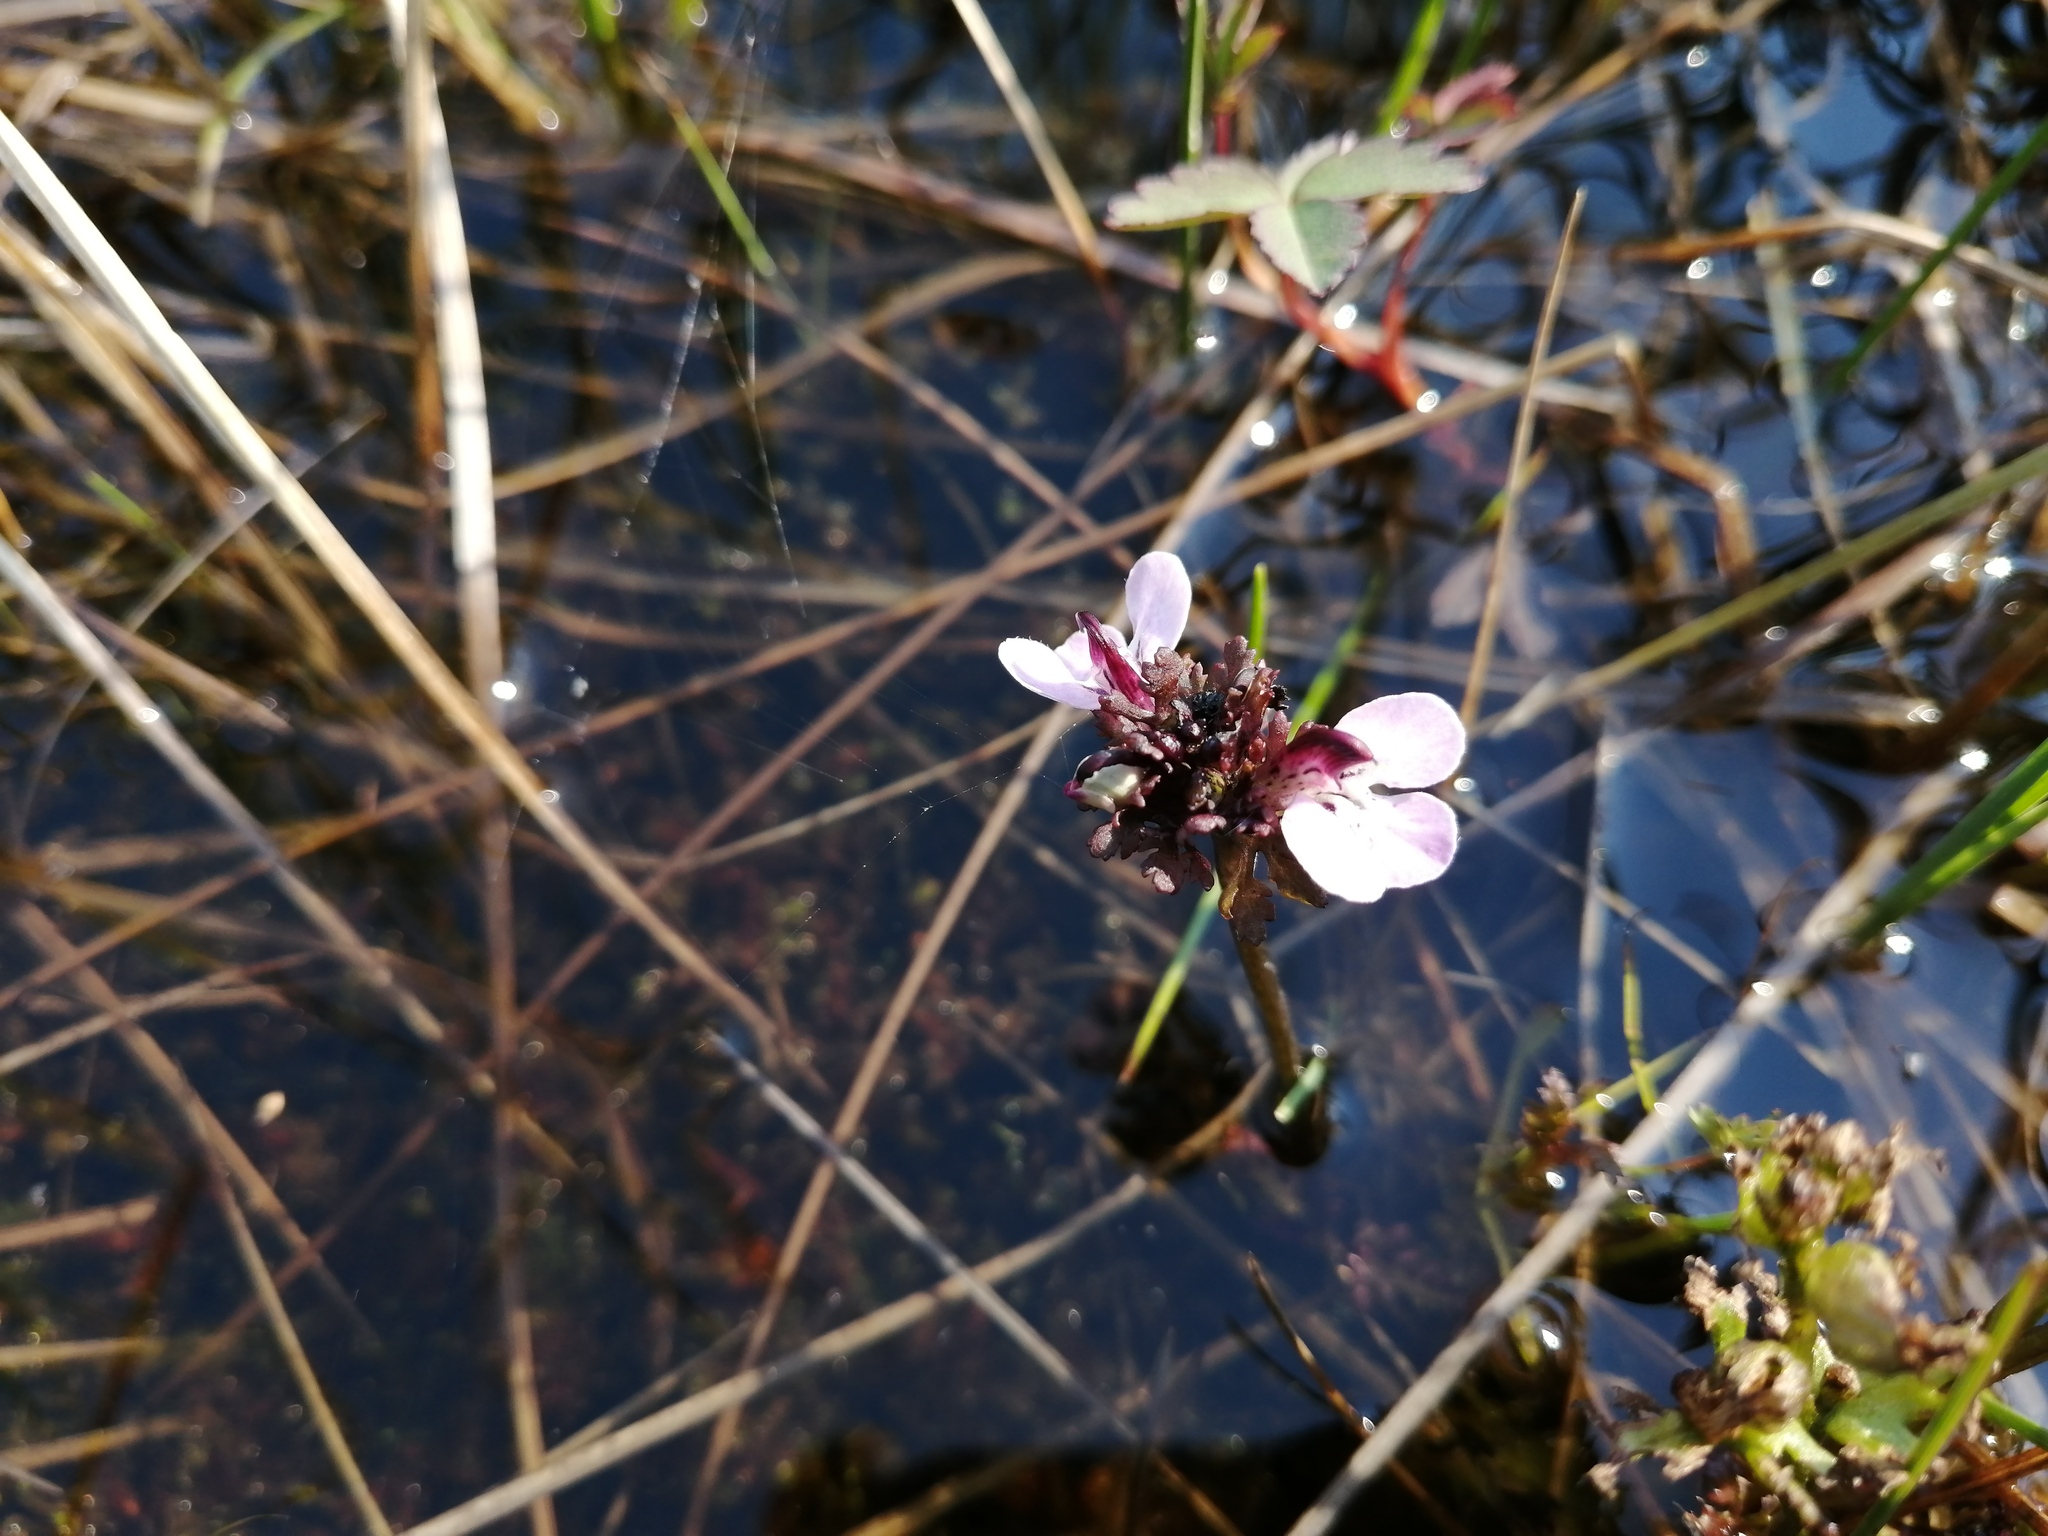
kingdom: Plantae
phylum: Tracheophyta
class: Magnoliopsida
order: Lamiales
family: Orobanchaceae
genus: Pedicularis
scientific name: Pedicularis pennellii
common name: Pennell's lousewort
